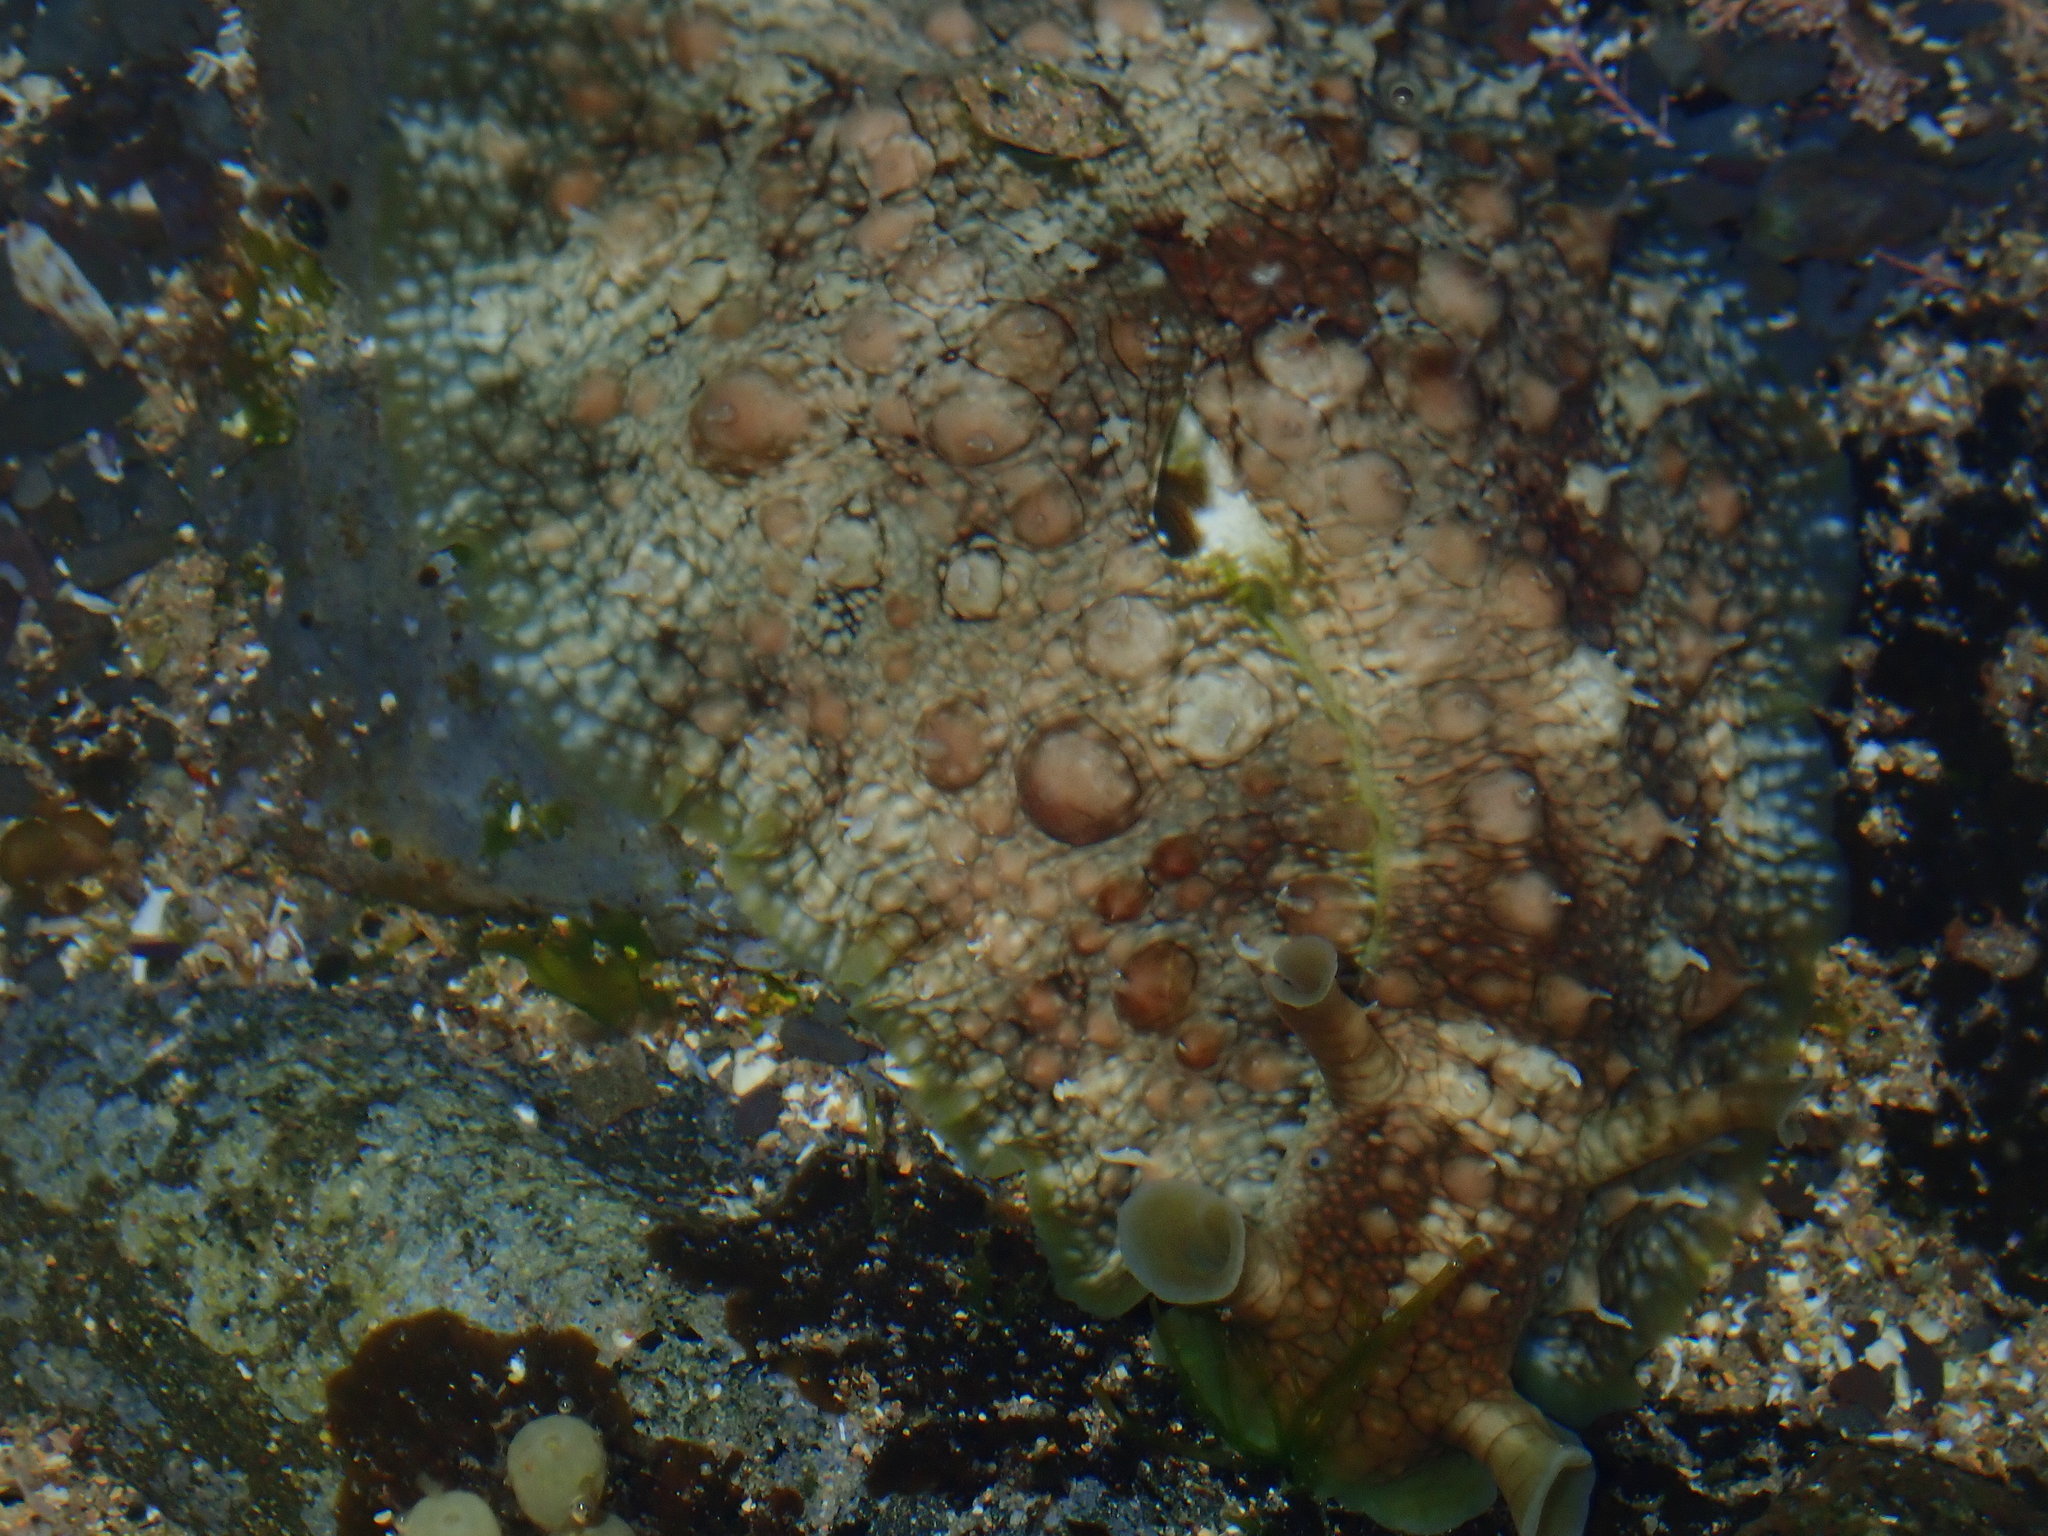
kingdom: Animalia
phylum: Mollusca
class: Gastropoda
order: Aplysiida
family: Aplysiidae
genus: Dolabrifera
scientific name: Dolabrifera brazieri
